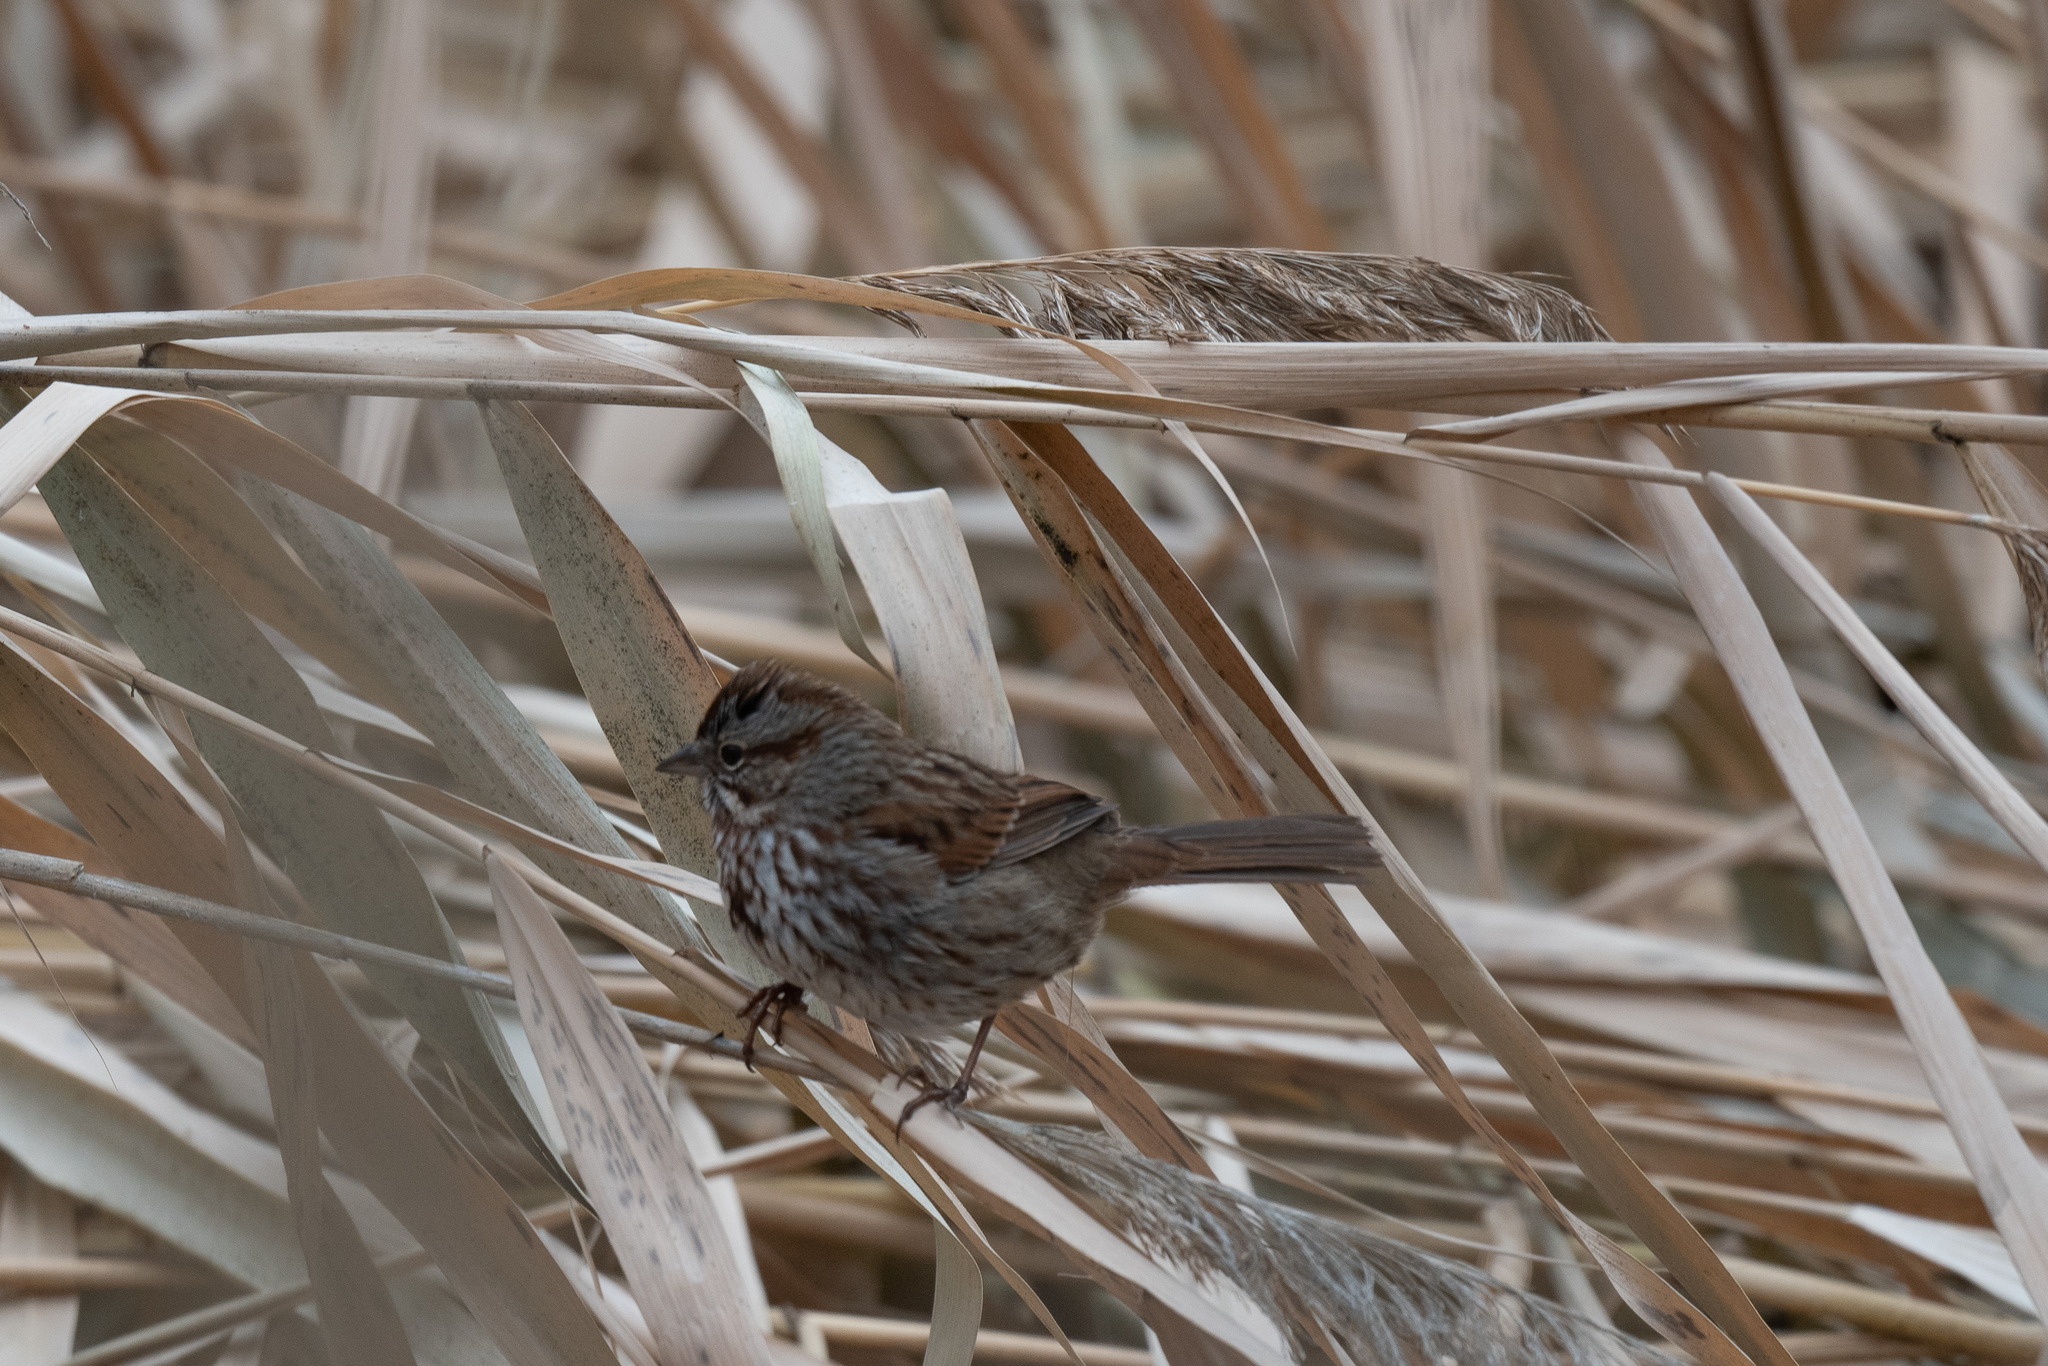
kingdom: Animalia
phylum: Chordata
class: Aves
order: Passeriformes
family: Passerellidae
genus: Melospiza
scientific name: Melospiza melodia
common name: Song sparrow
